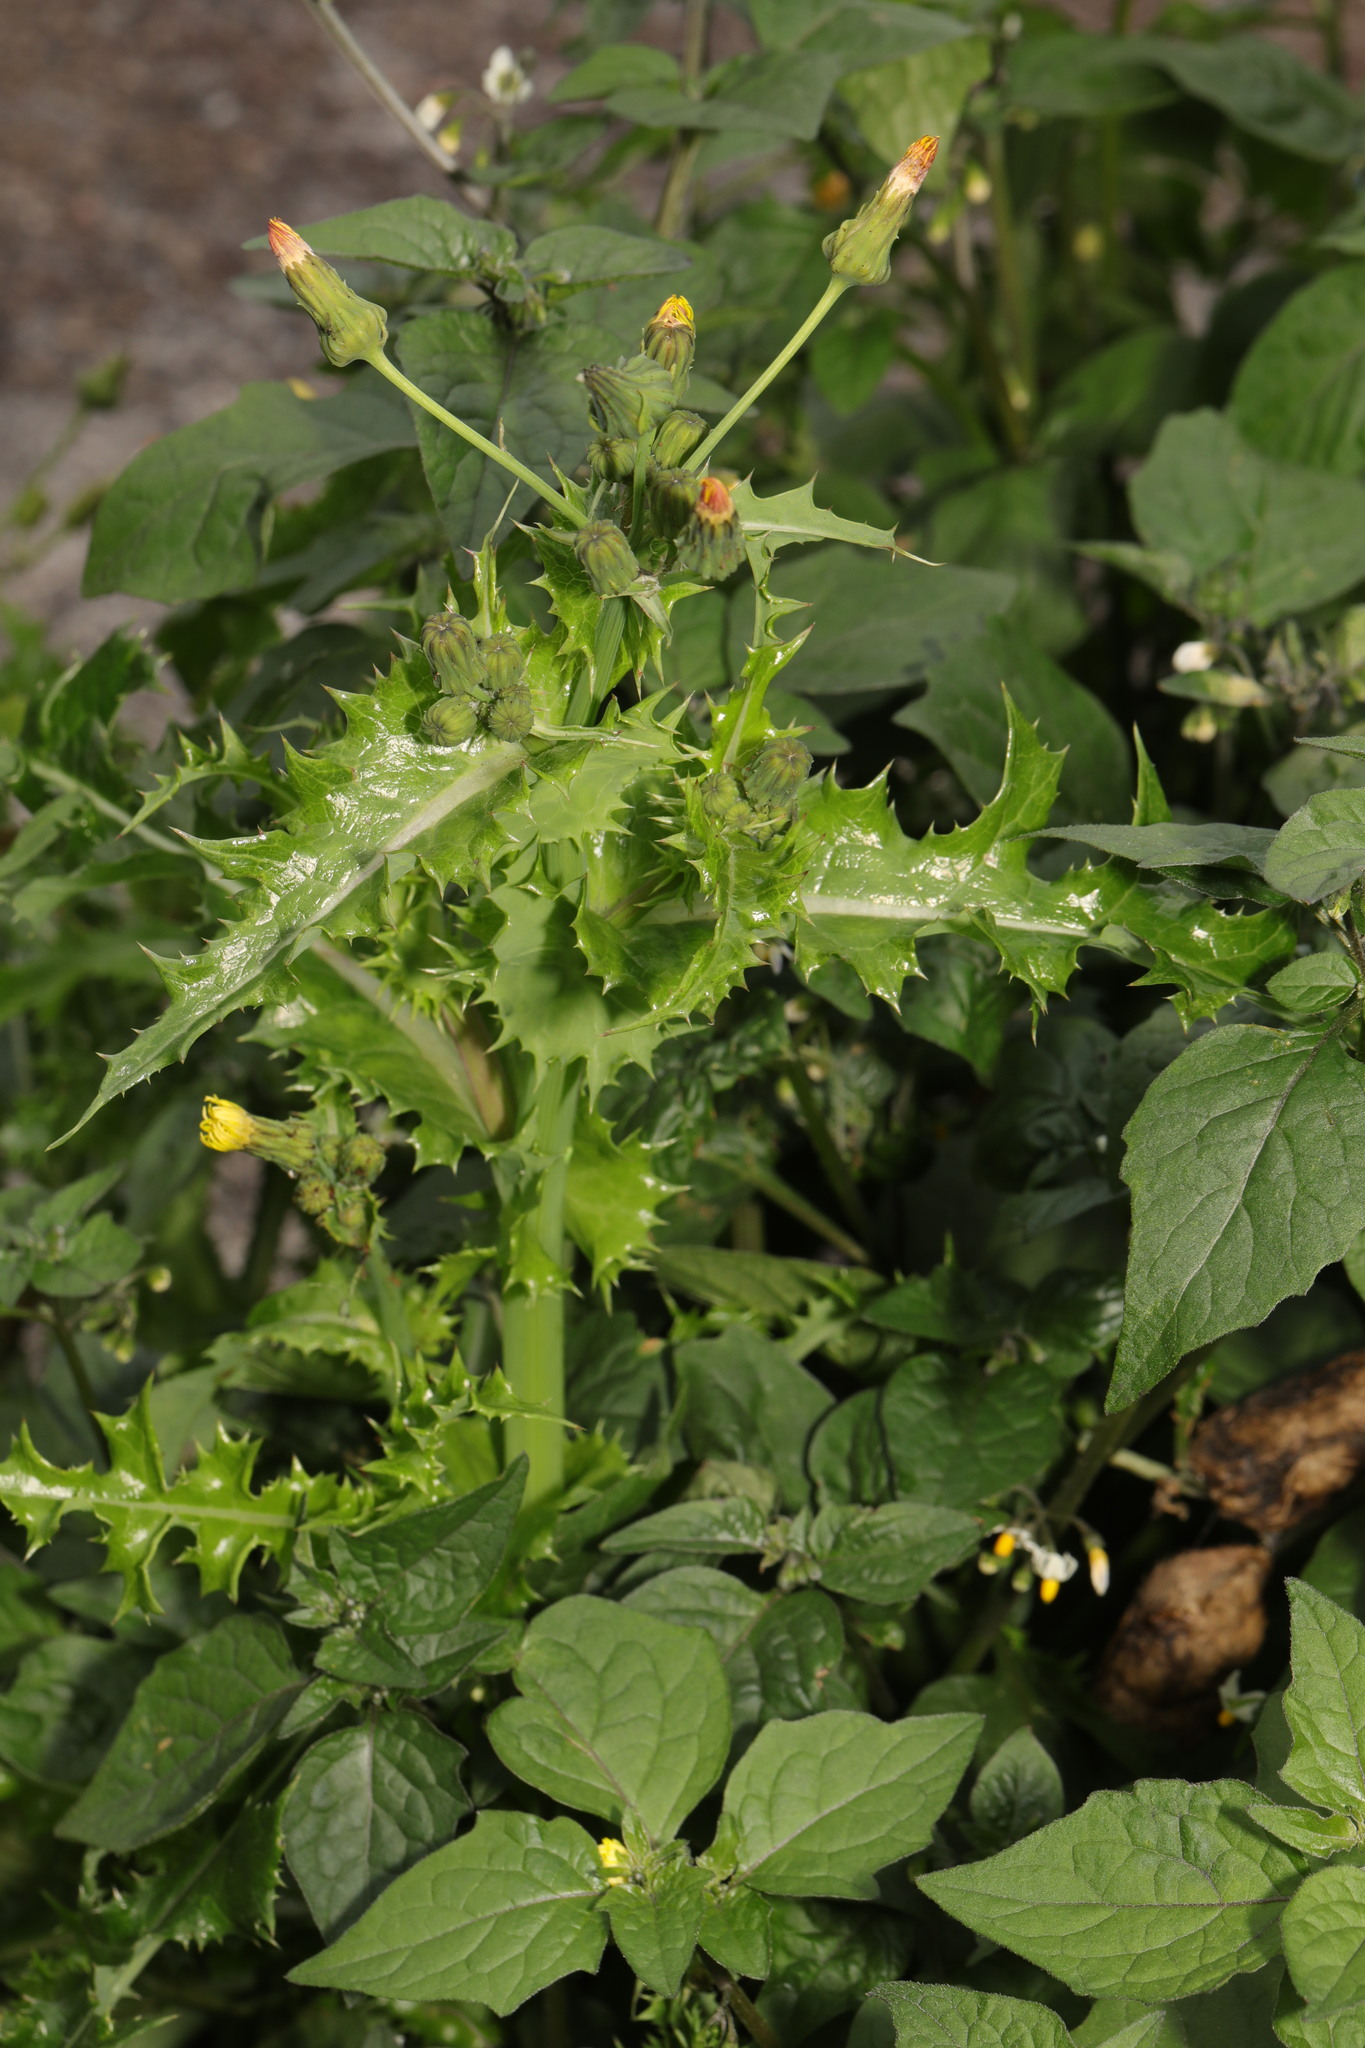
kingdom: Plantae
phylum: Tracheophyta
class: Magnoliopsida
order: Asterales
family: Asteraceae
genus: Sonchus
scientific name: Sonchus asper
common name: Prickly sow-thistle
